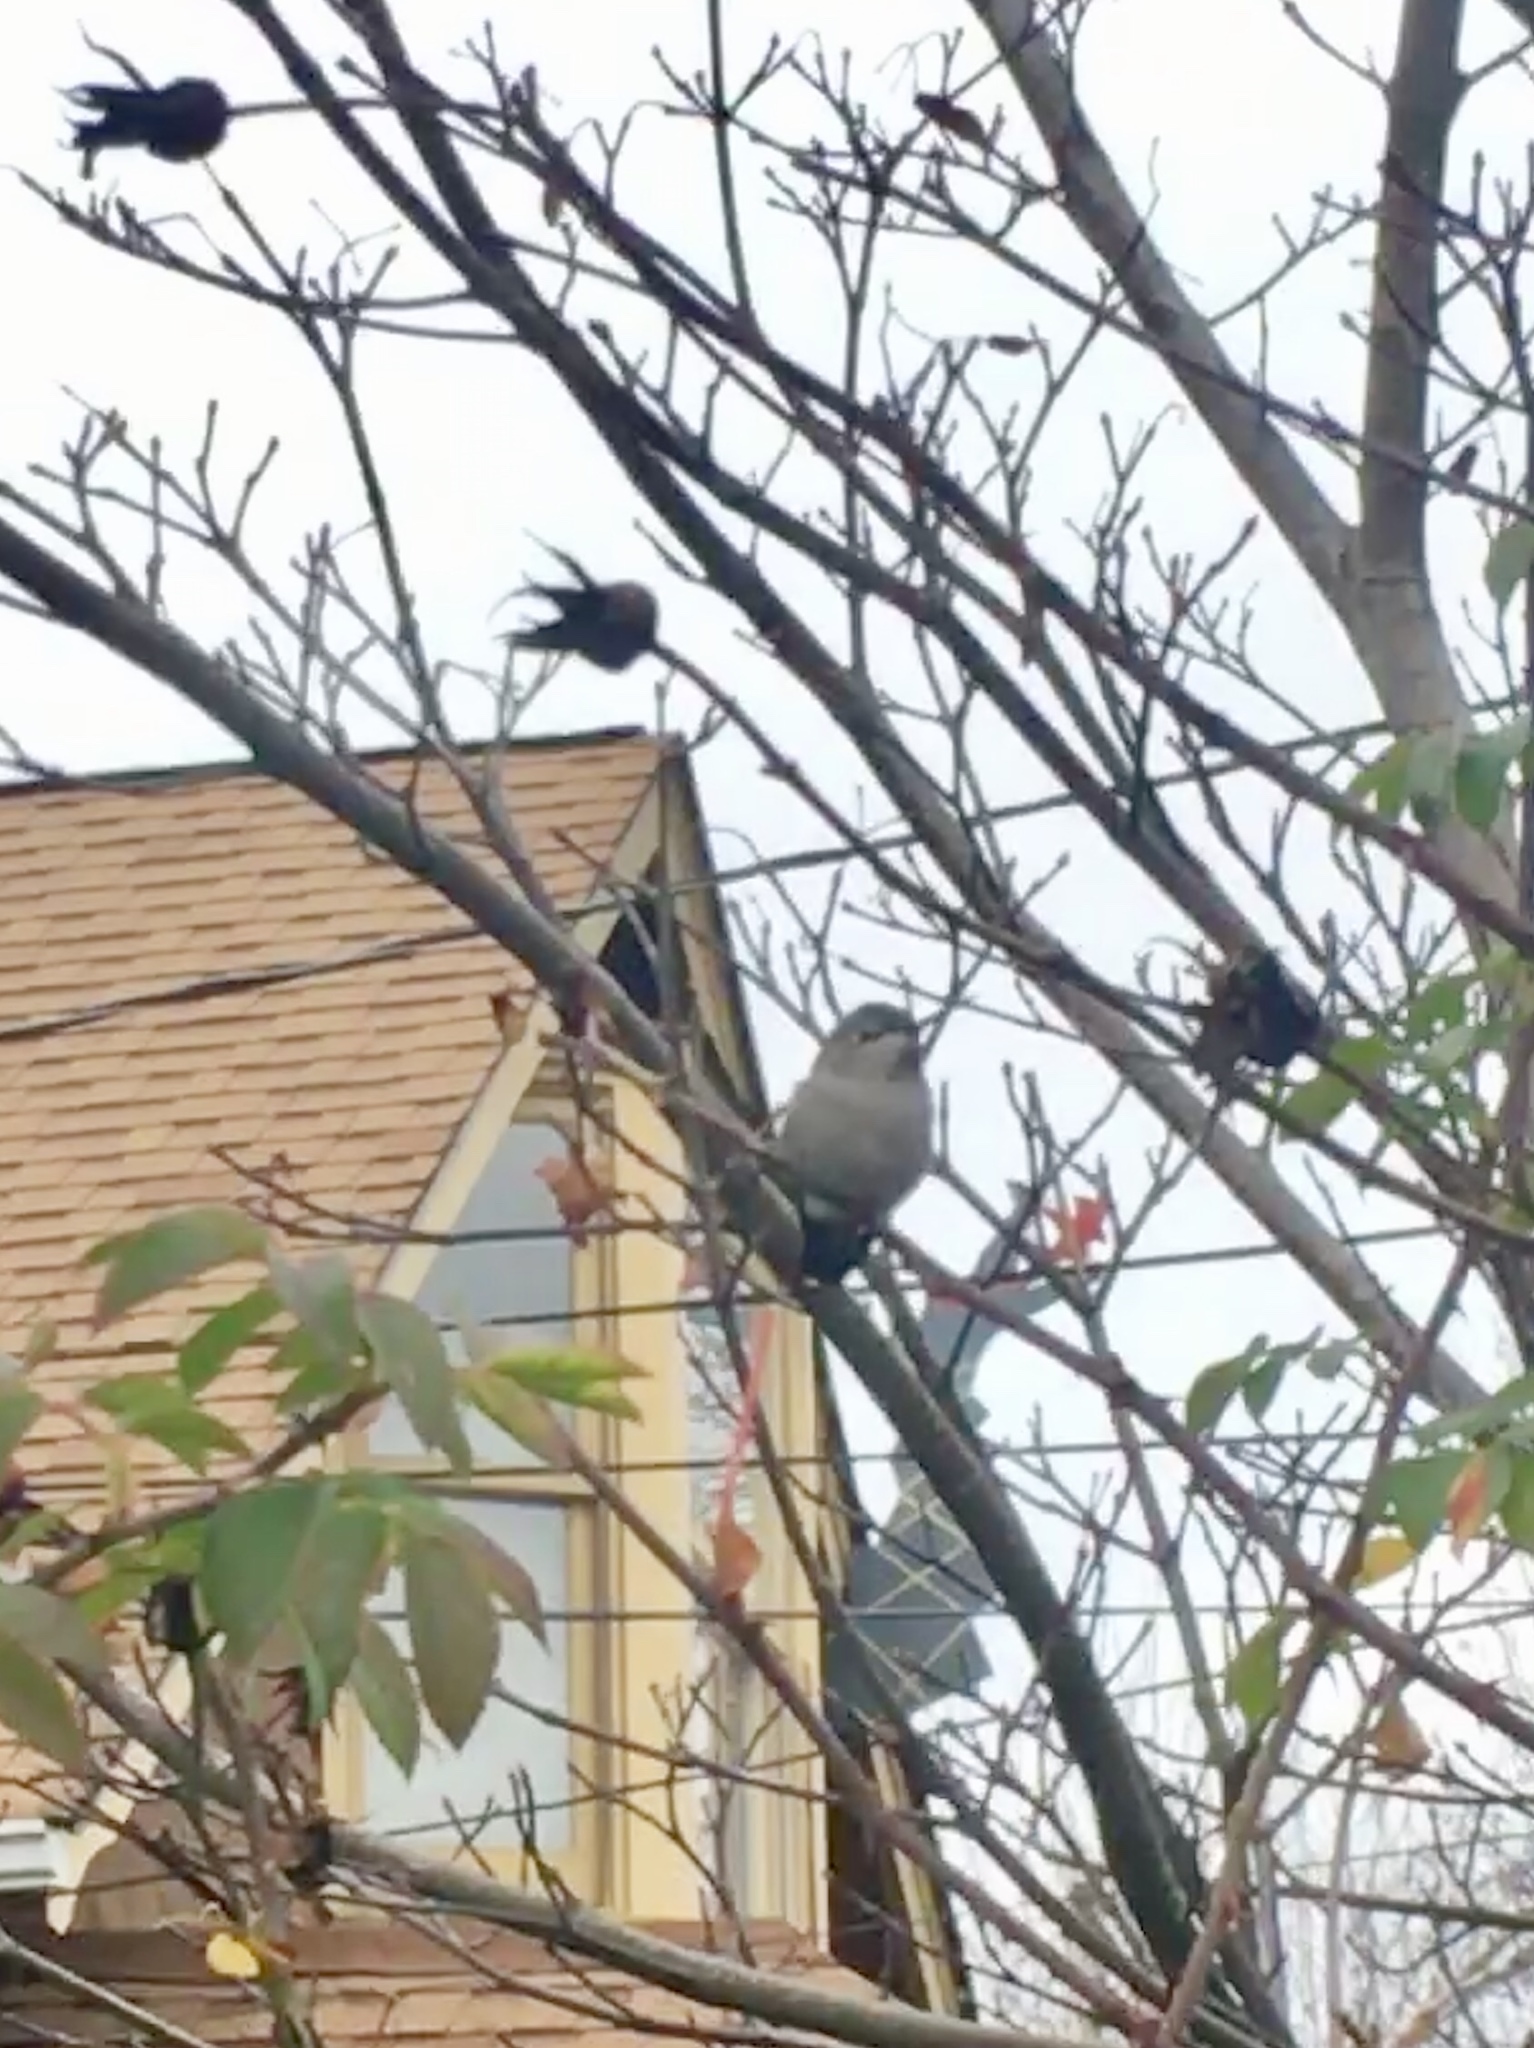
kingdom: Animalia
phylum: Chordata
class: Aves
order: Apodiformes
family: Trochilidae
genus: Calypte
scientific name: Calypte anna
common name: Anna's hummingbird
